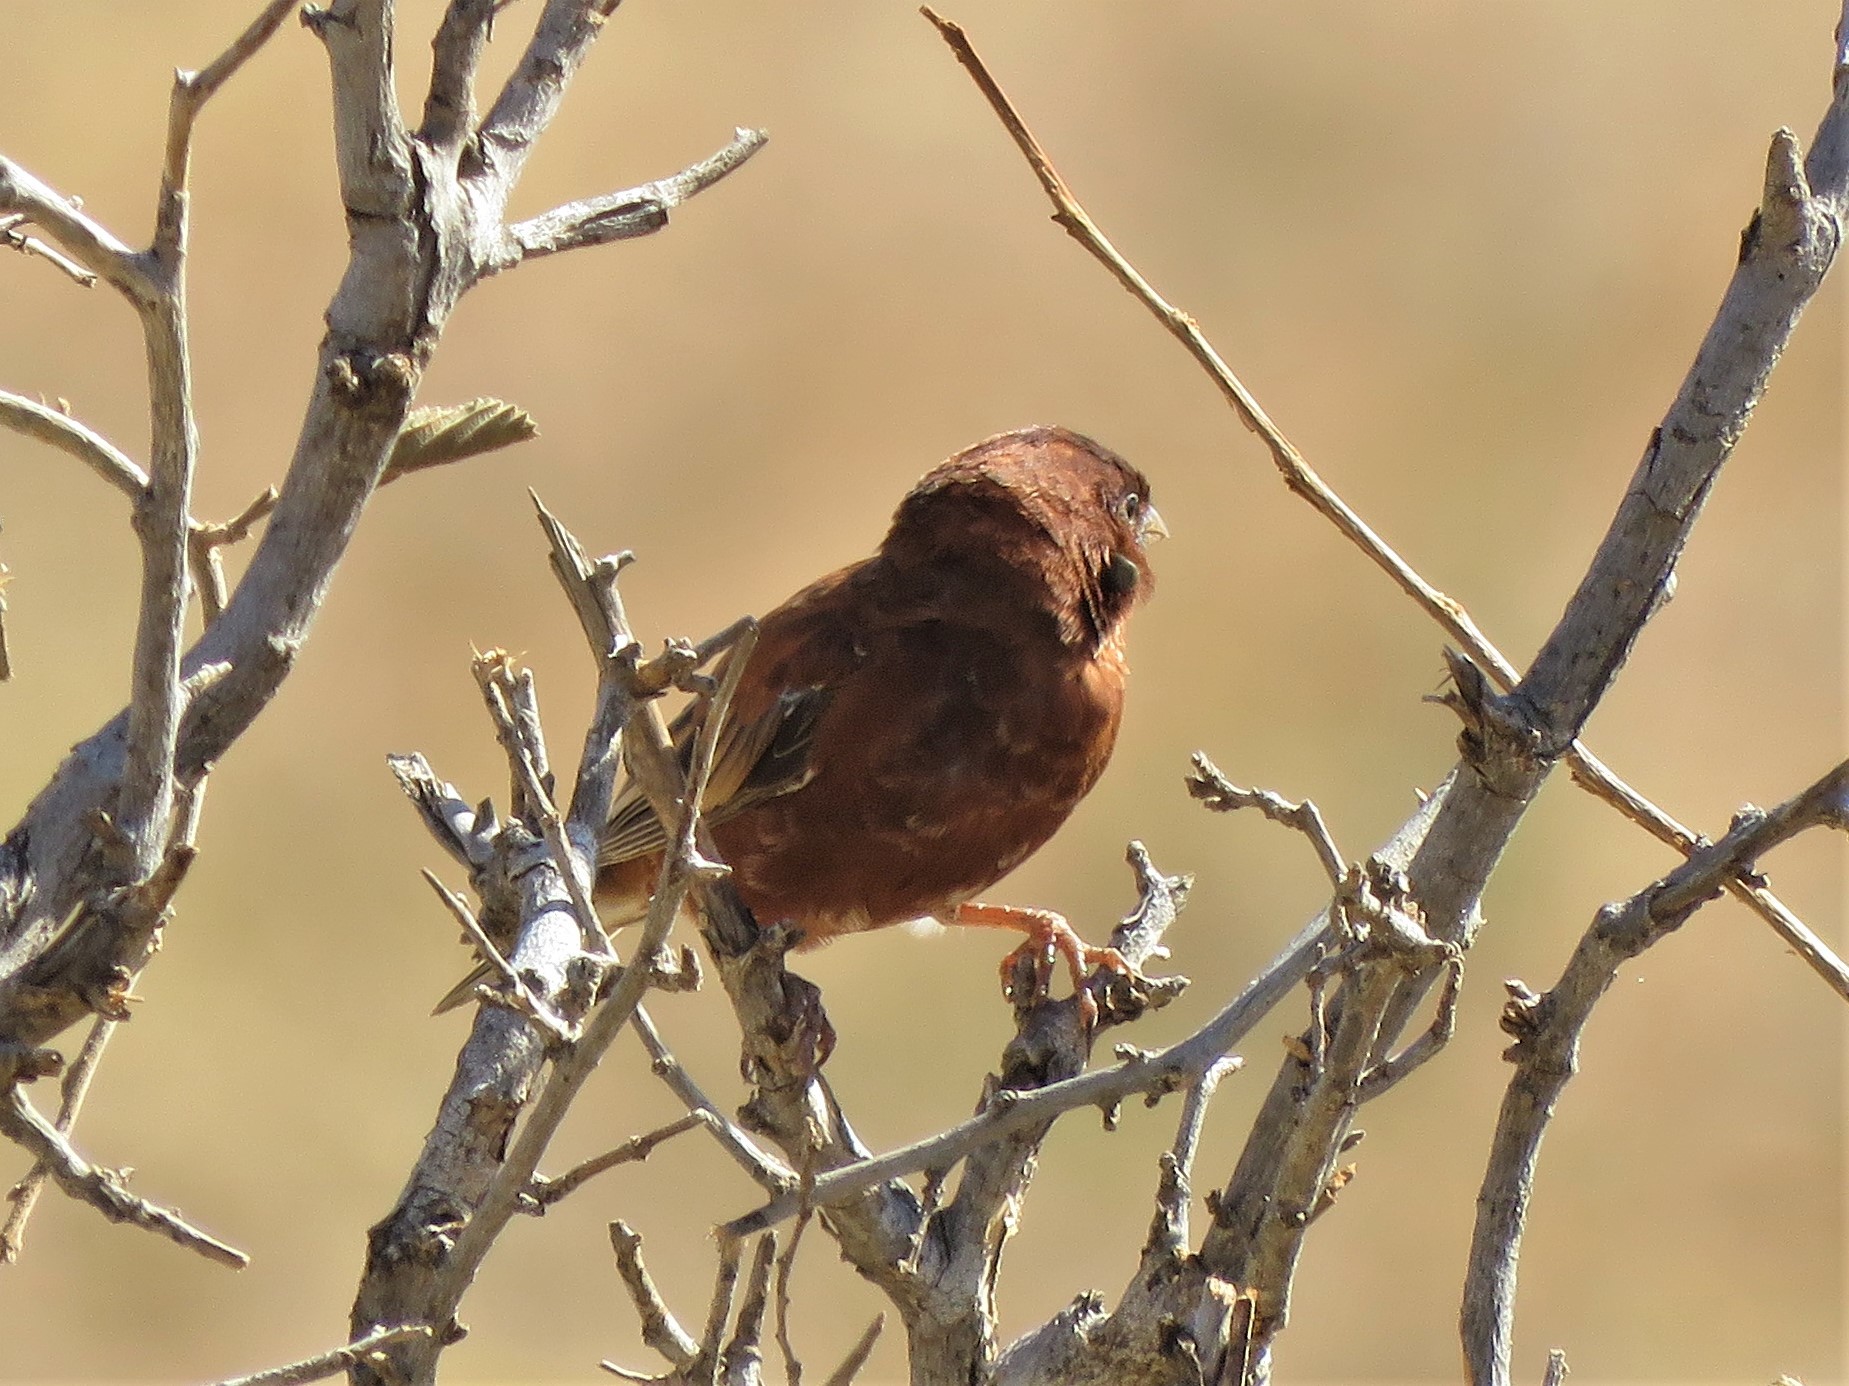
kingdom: Animalia
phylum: Chordata
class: Aves
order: Passeriformes
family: Passeridae
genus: Passer
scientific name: Passer eminibey
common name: Chestnut sparrow
